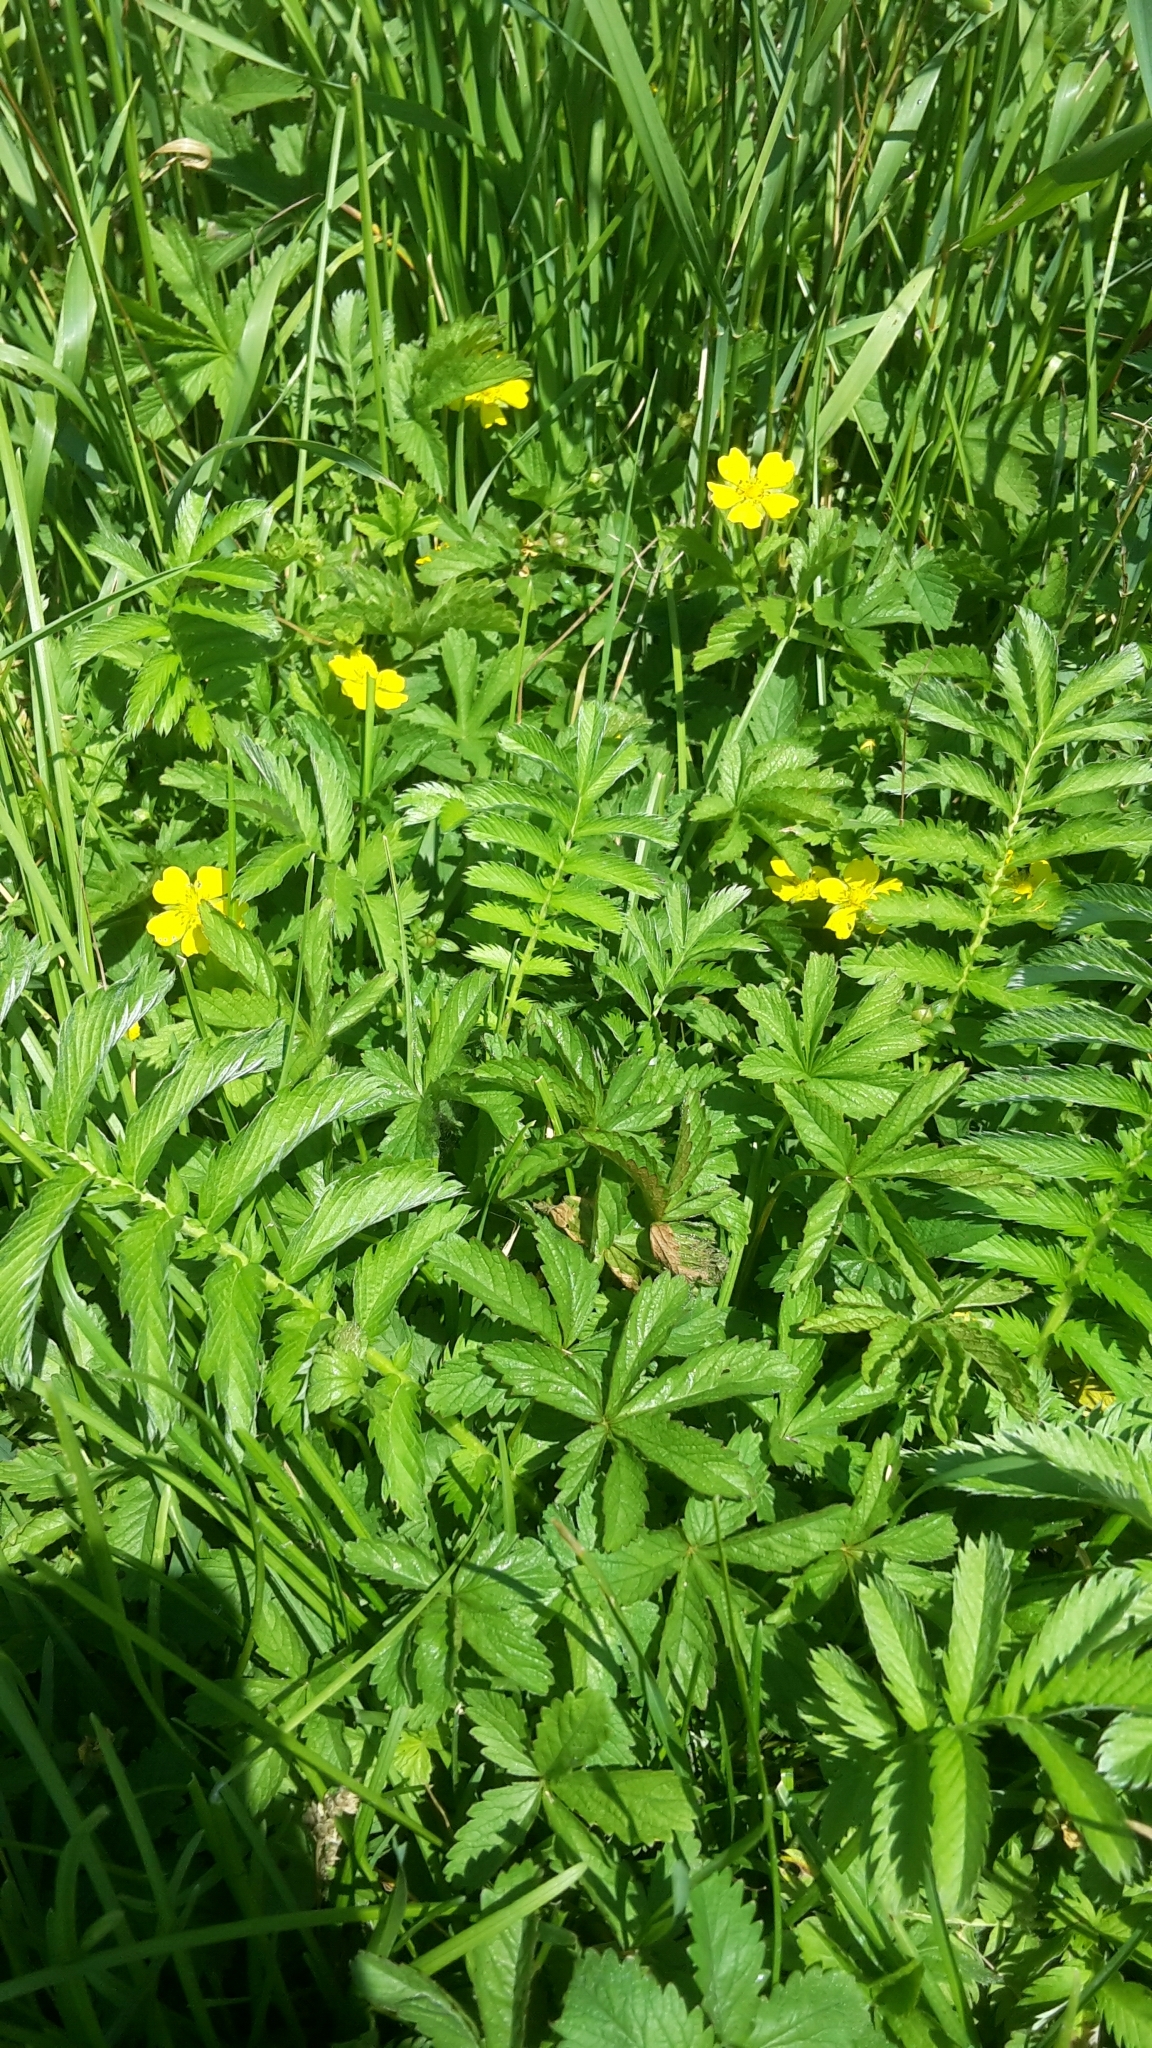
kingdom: Plantae
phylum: Tracheophyta
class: Magnoliopsida
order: Rosales
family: Rosaceae
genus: Argentina
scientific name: Argentina anserina
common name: Common silverweed
